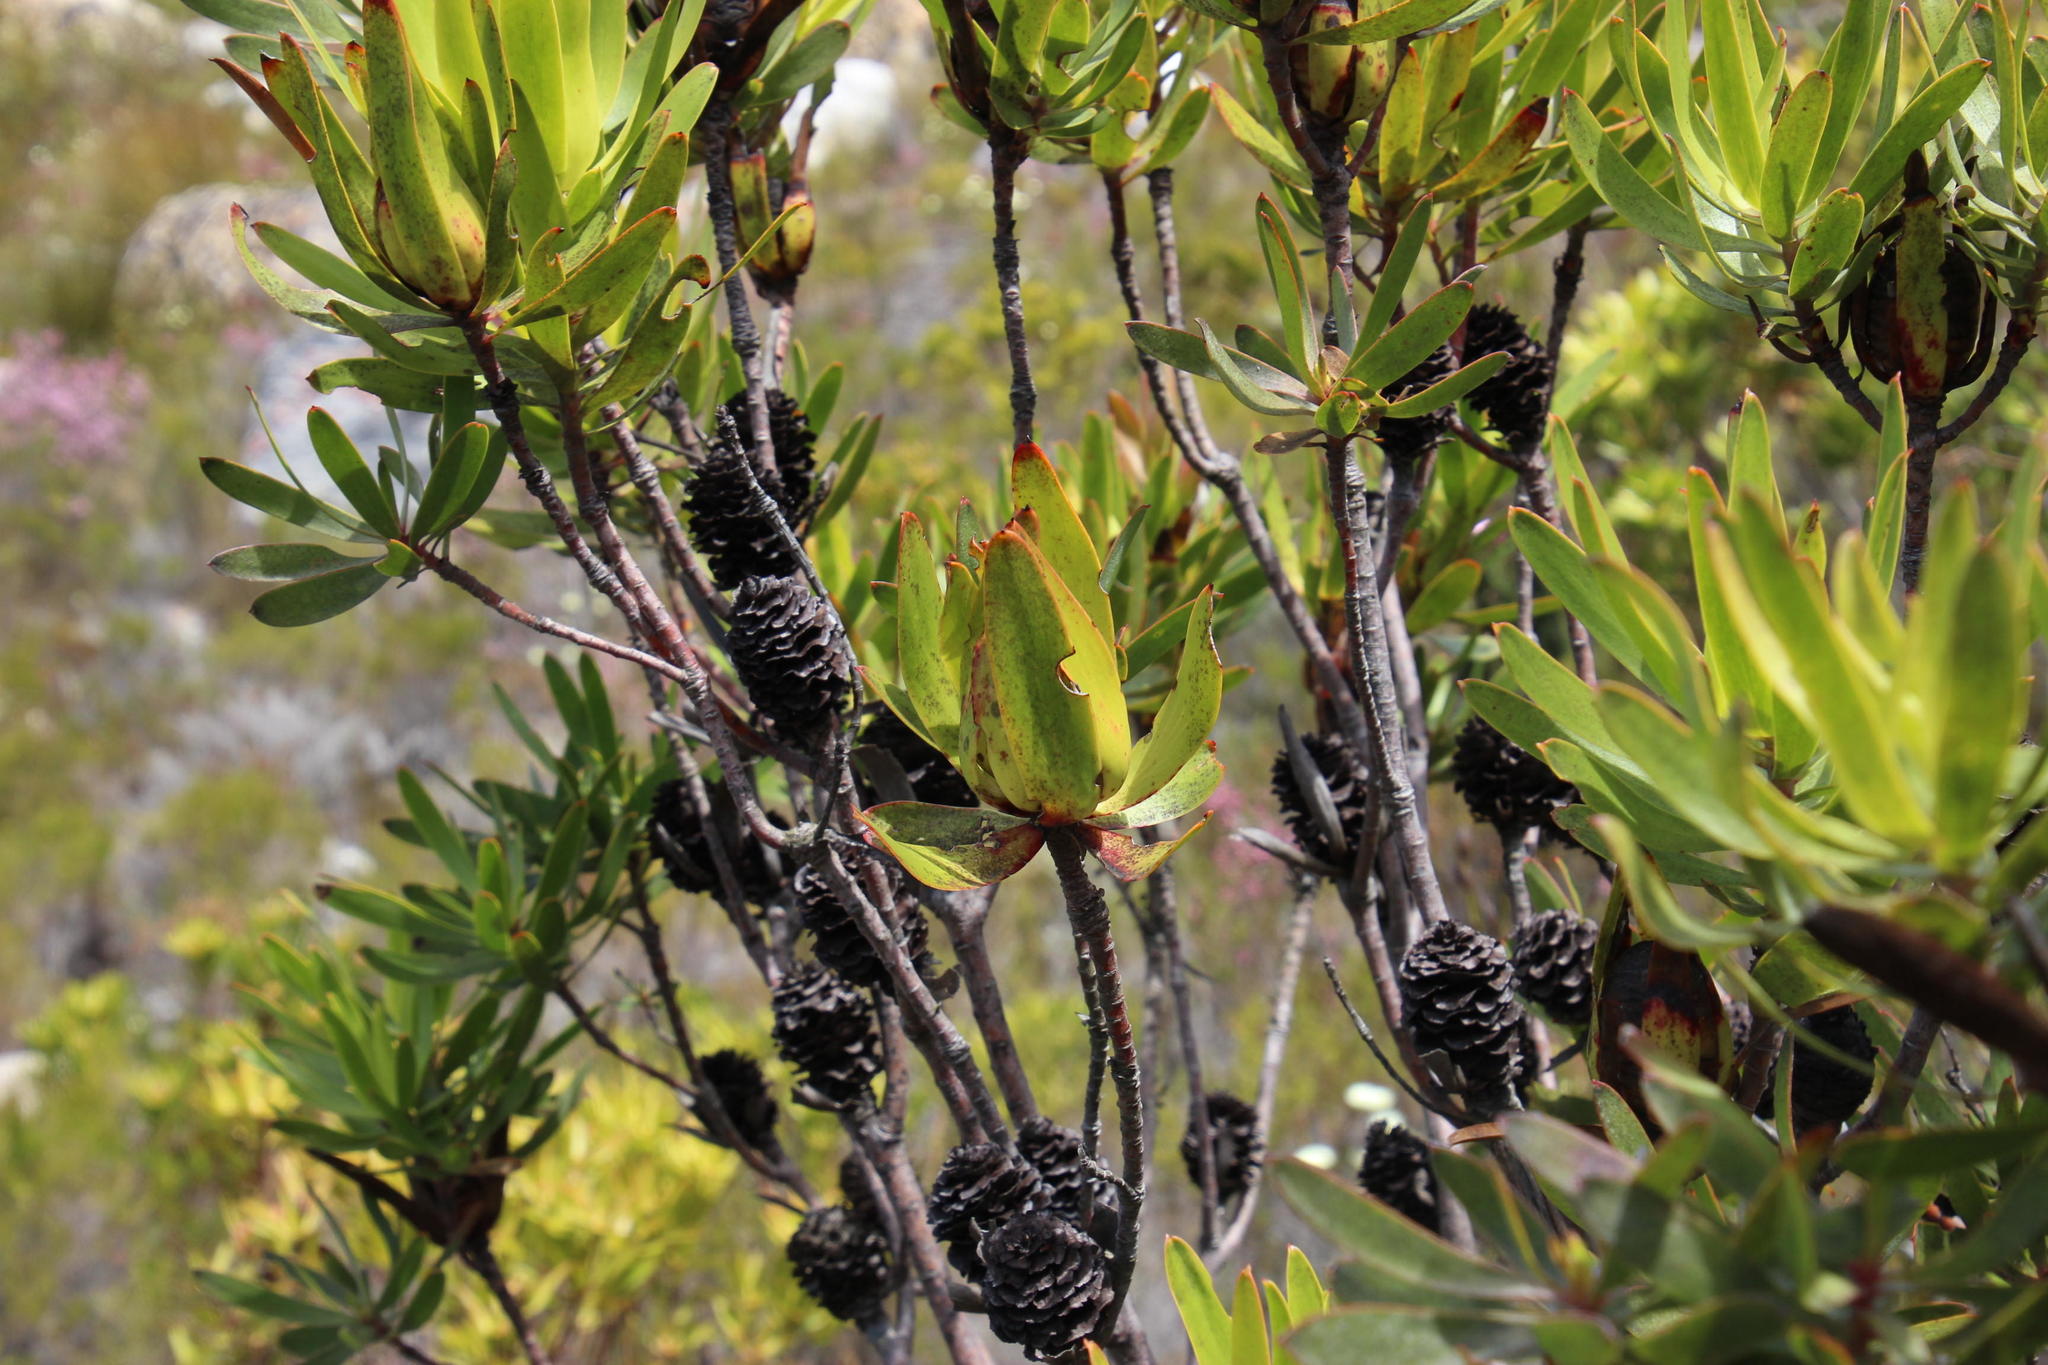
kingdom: Plantae
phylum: Tracheophyta
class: Magnoliopsida
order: Proteales
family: Proteaceae
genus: Leucadendron
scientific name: Leucadendron laureolum
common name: Golden sunshinebush
